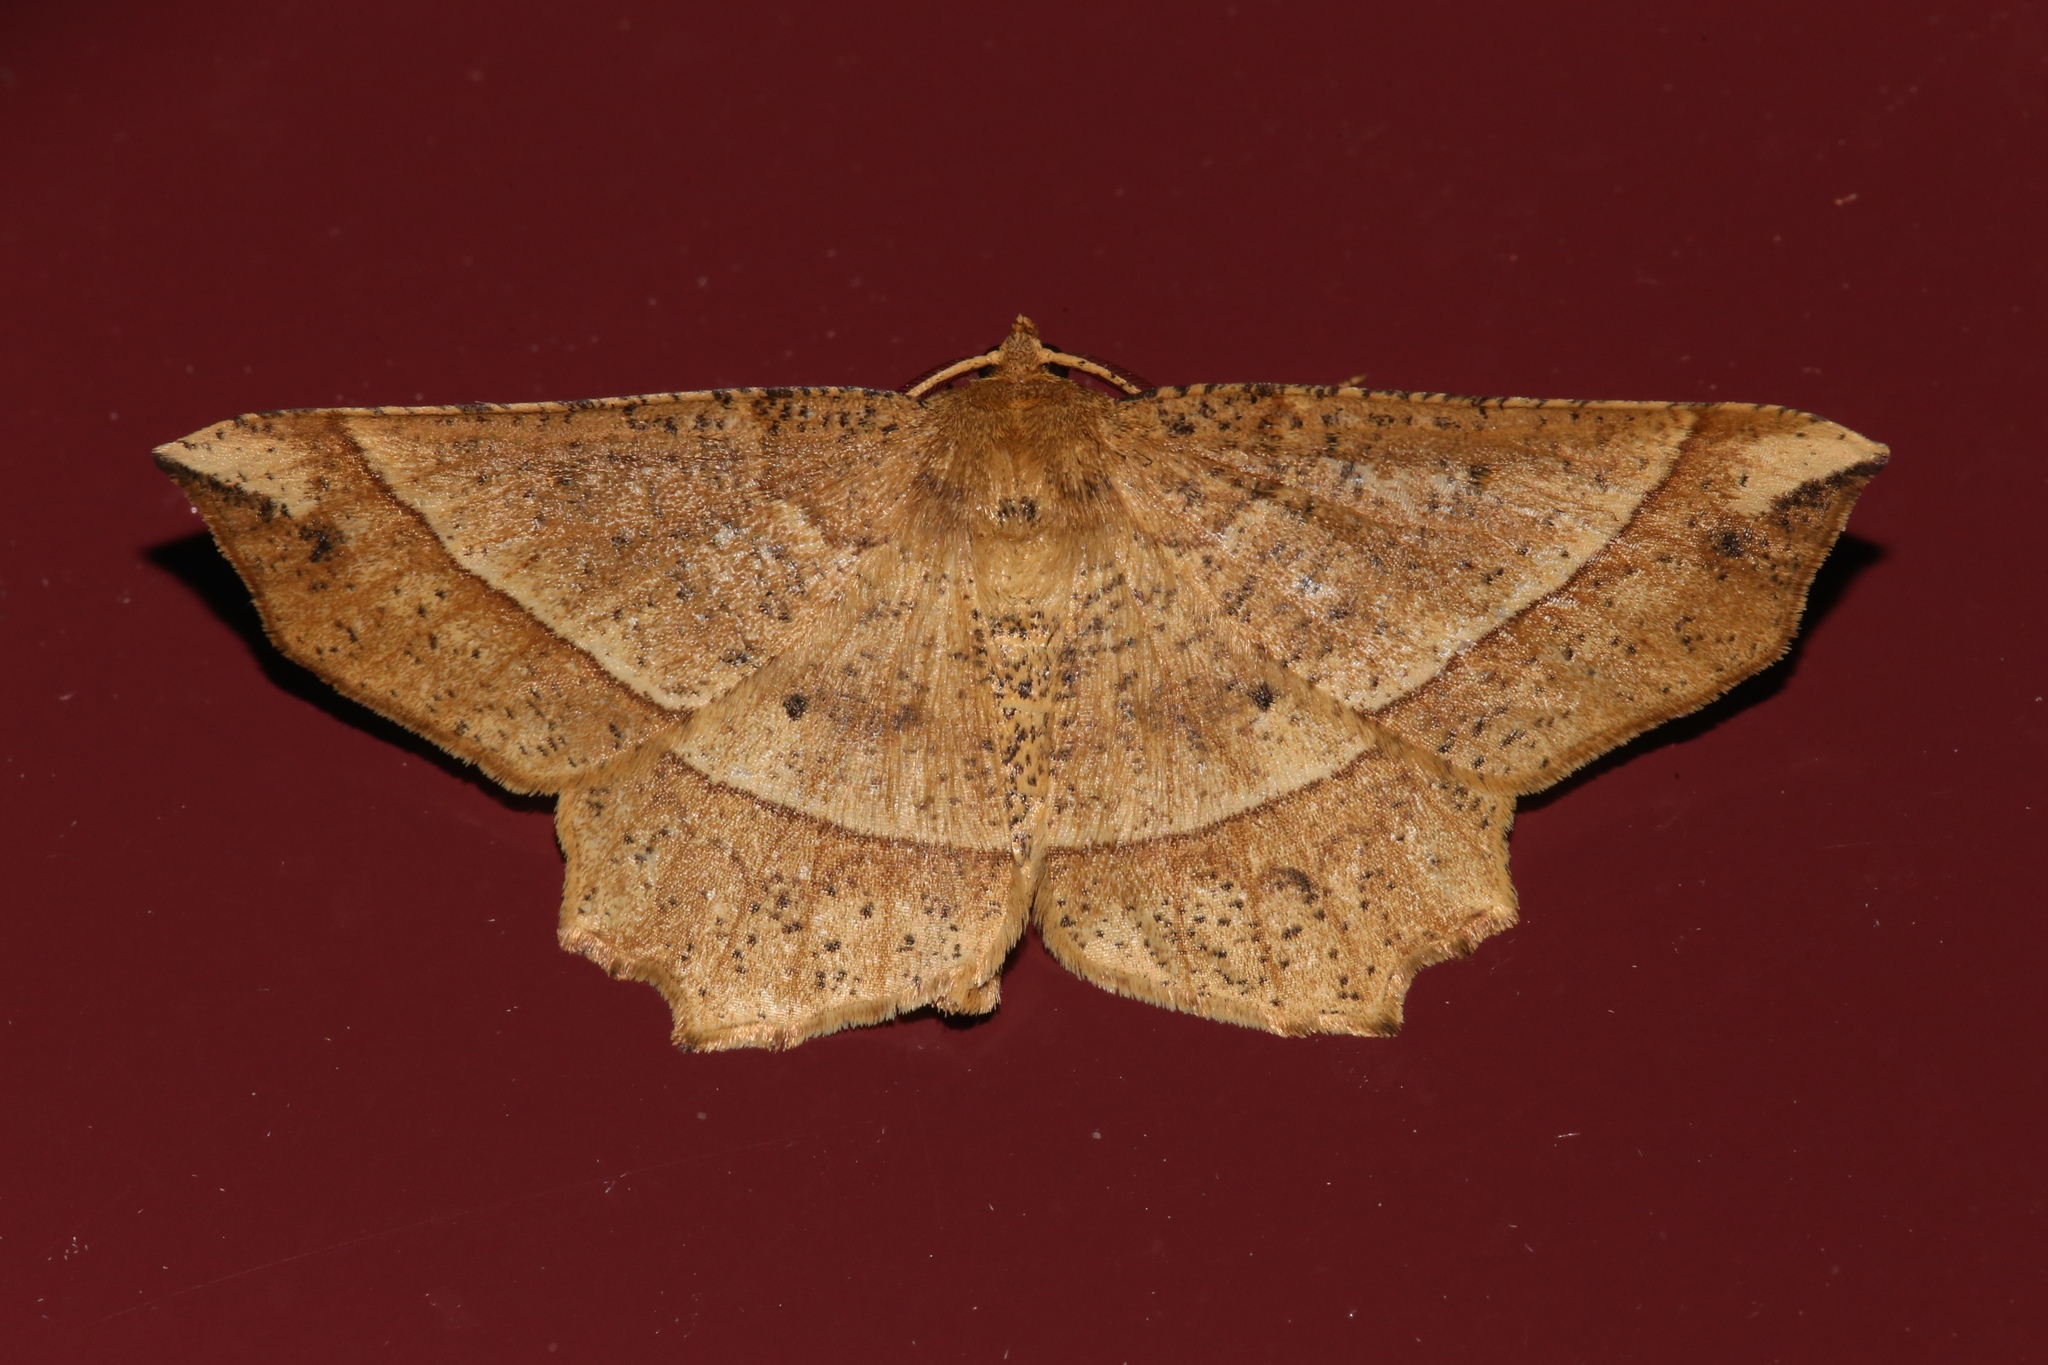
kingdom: Animalia
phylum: Arthropoda
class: Insecta
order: Lepidoptera
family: Geometridae
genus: Euchlaena
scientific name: Euchlaena tigrinaria
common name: Mottled euchlaena moth
